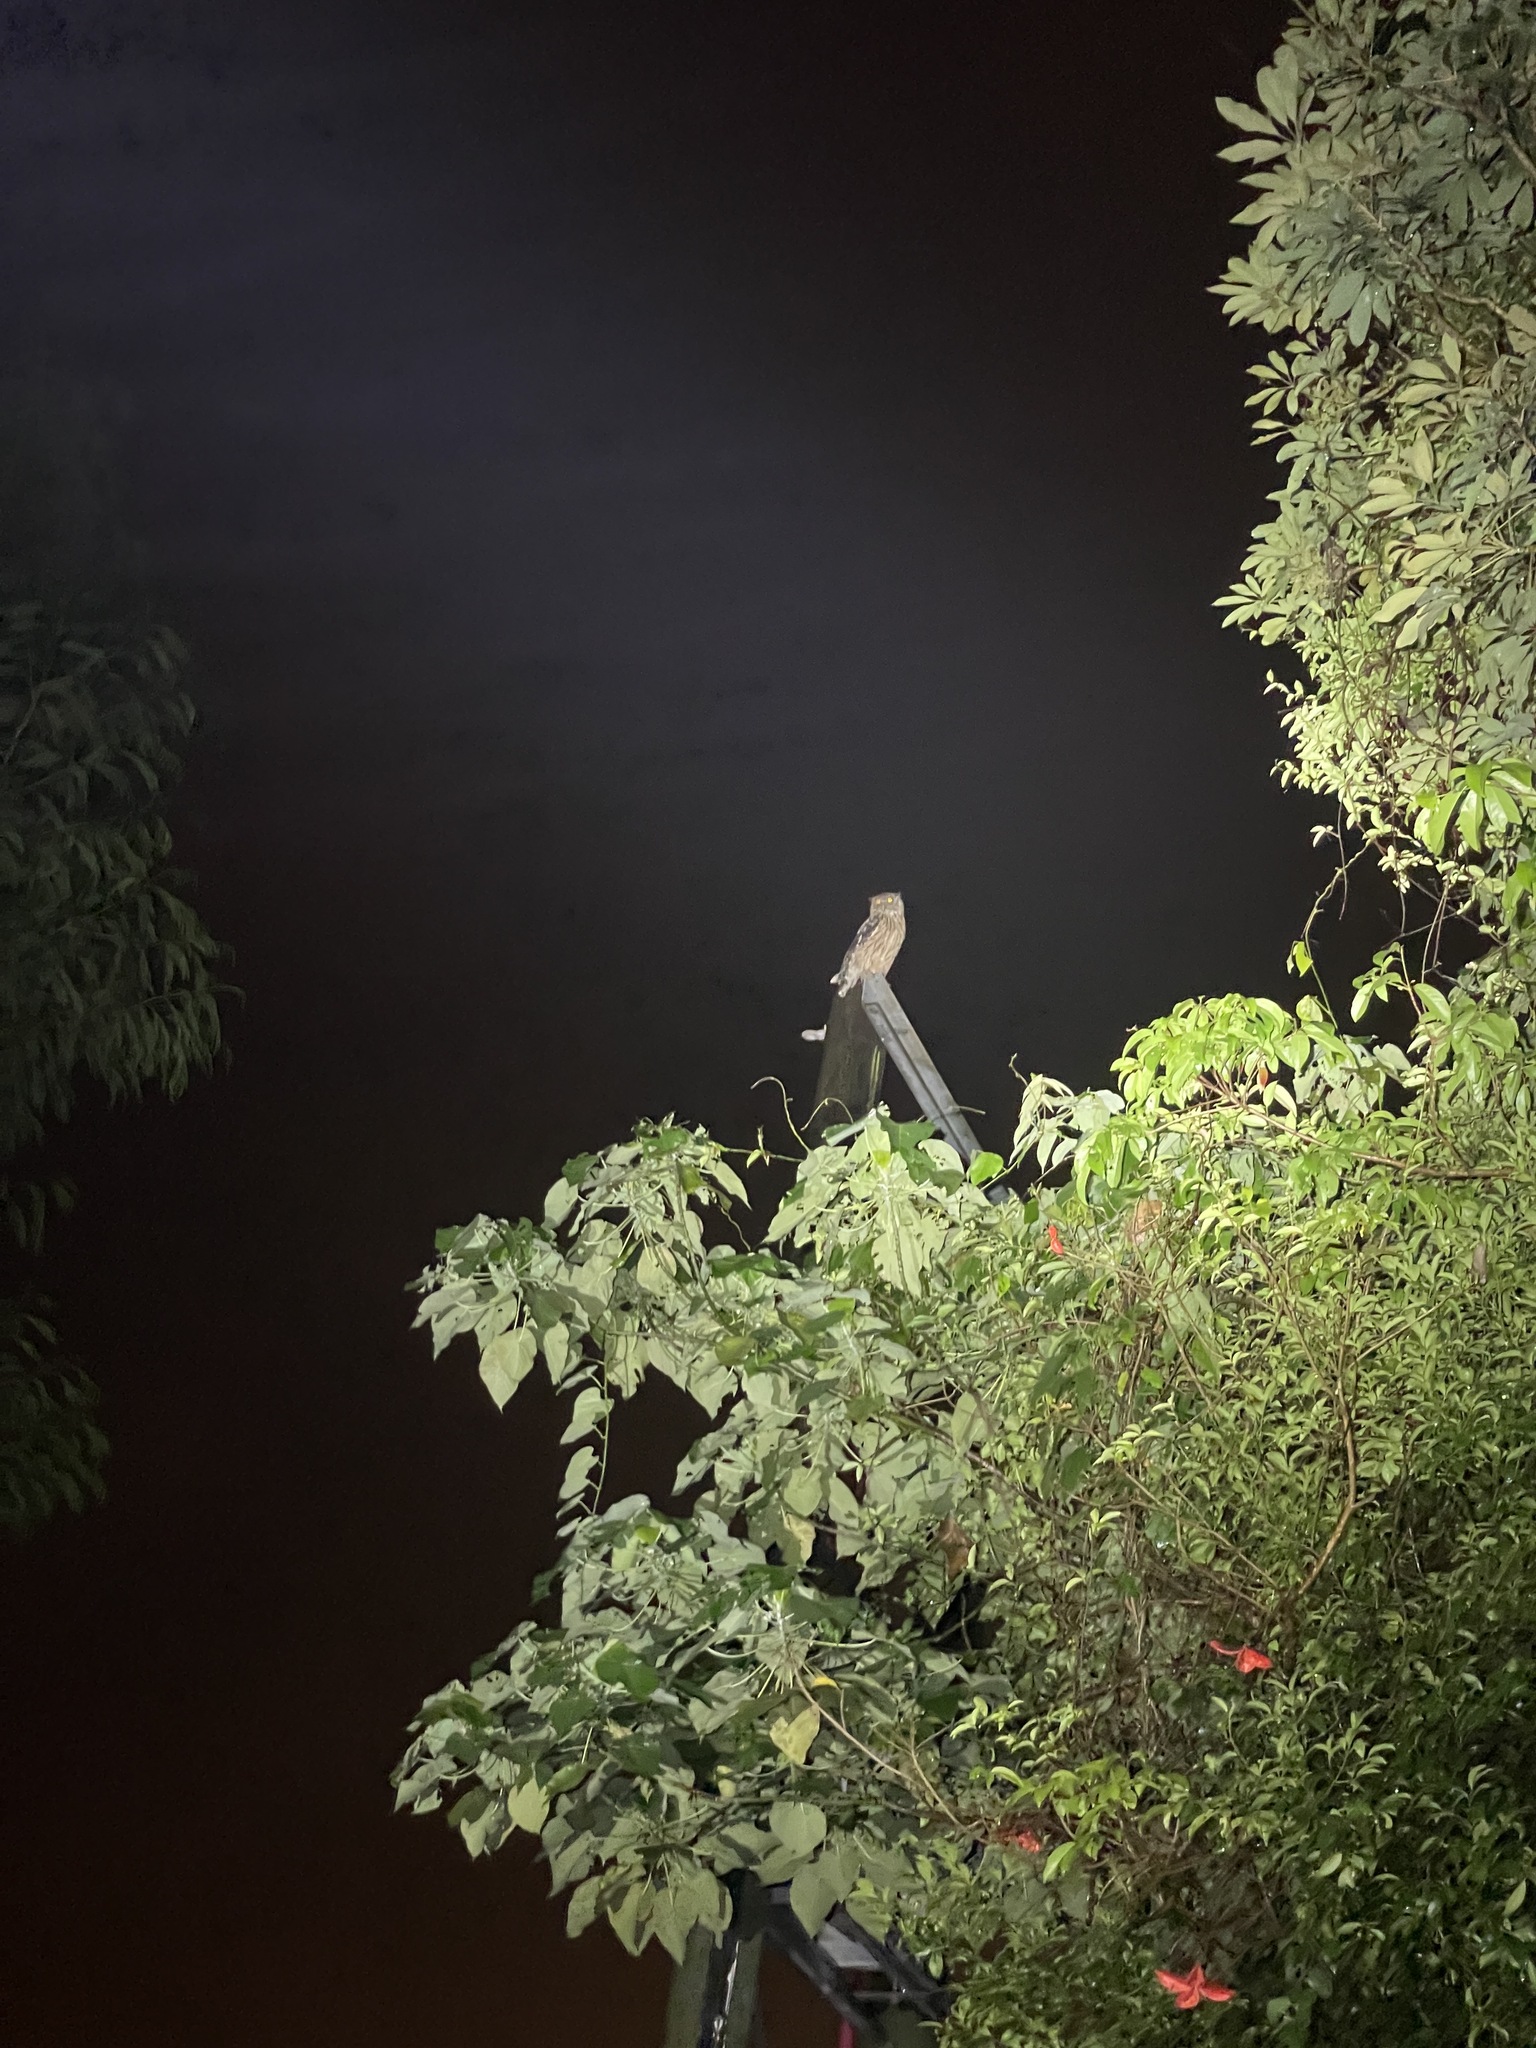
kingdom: Animalia
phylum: Chordata
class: Aves
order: Strigiformes
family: Strigidae
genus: Ketupa
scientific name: Ketupa zeylonensis
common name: Brown fish owl
